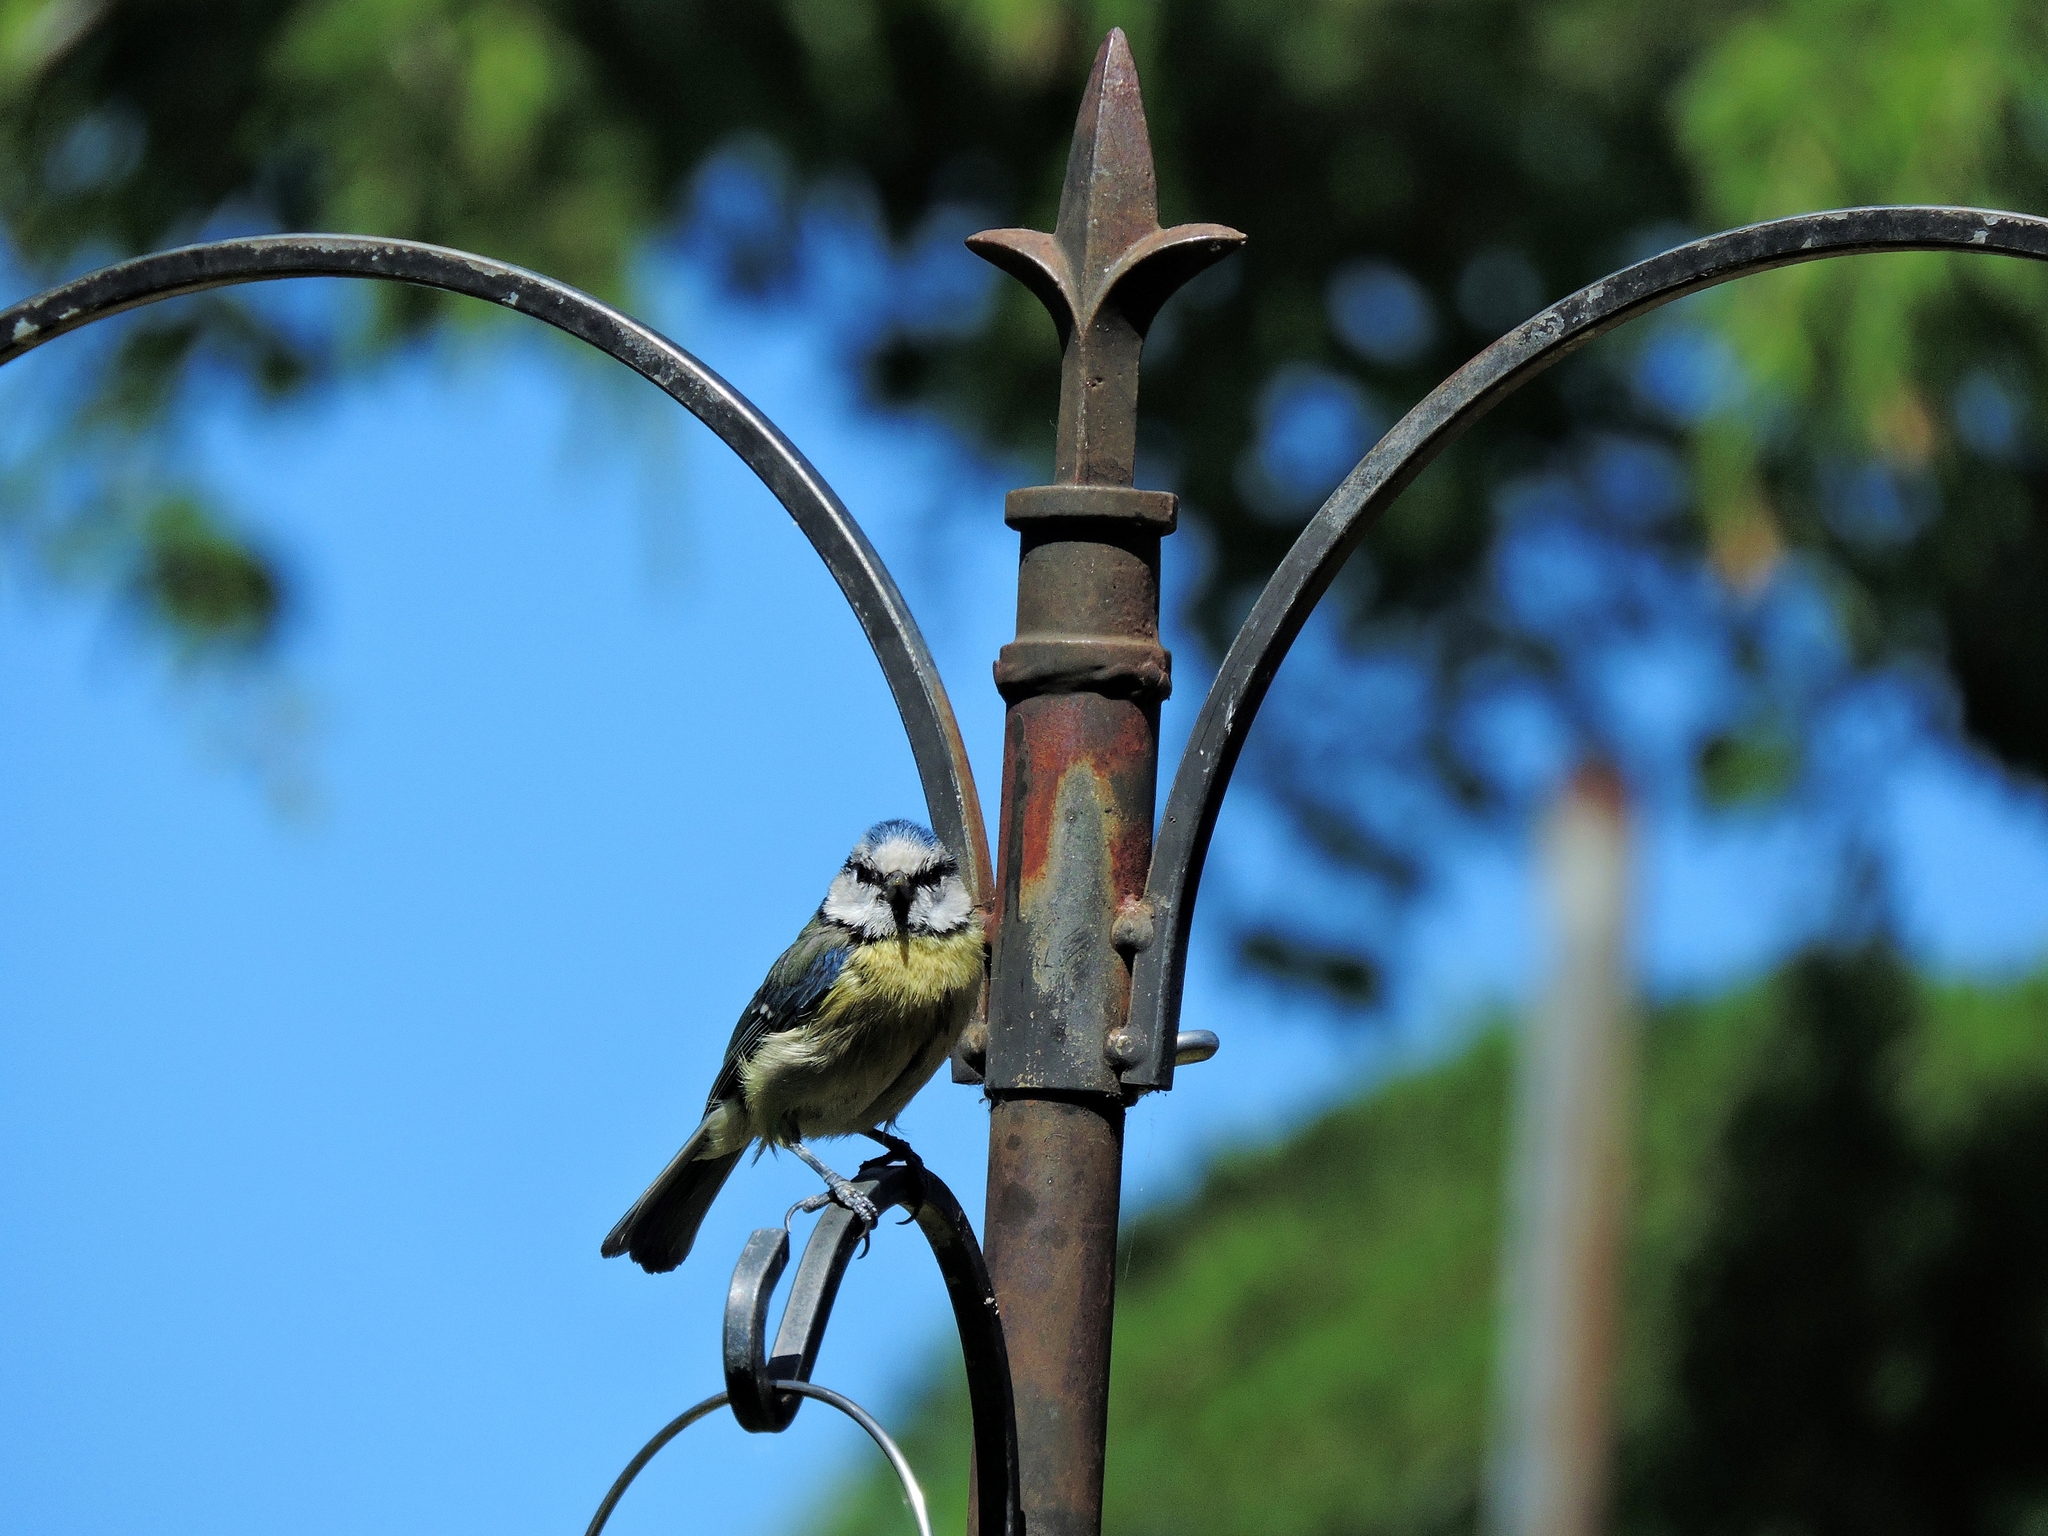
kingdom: Animalia
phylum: Chordata
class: Aves
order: Passeriformes
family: Paridae
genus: Cyanistes
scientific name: Cyanistes caeruleus
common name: Eurasian blue tit
